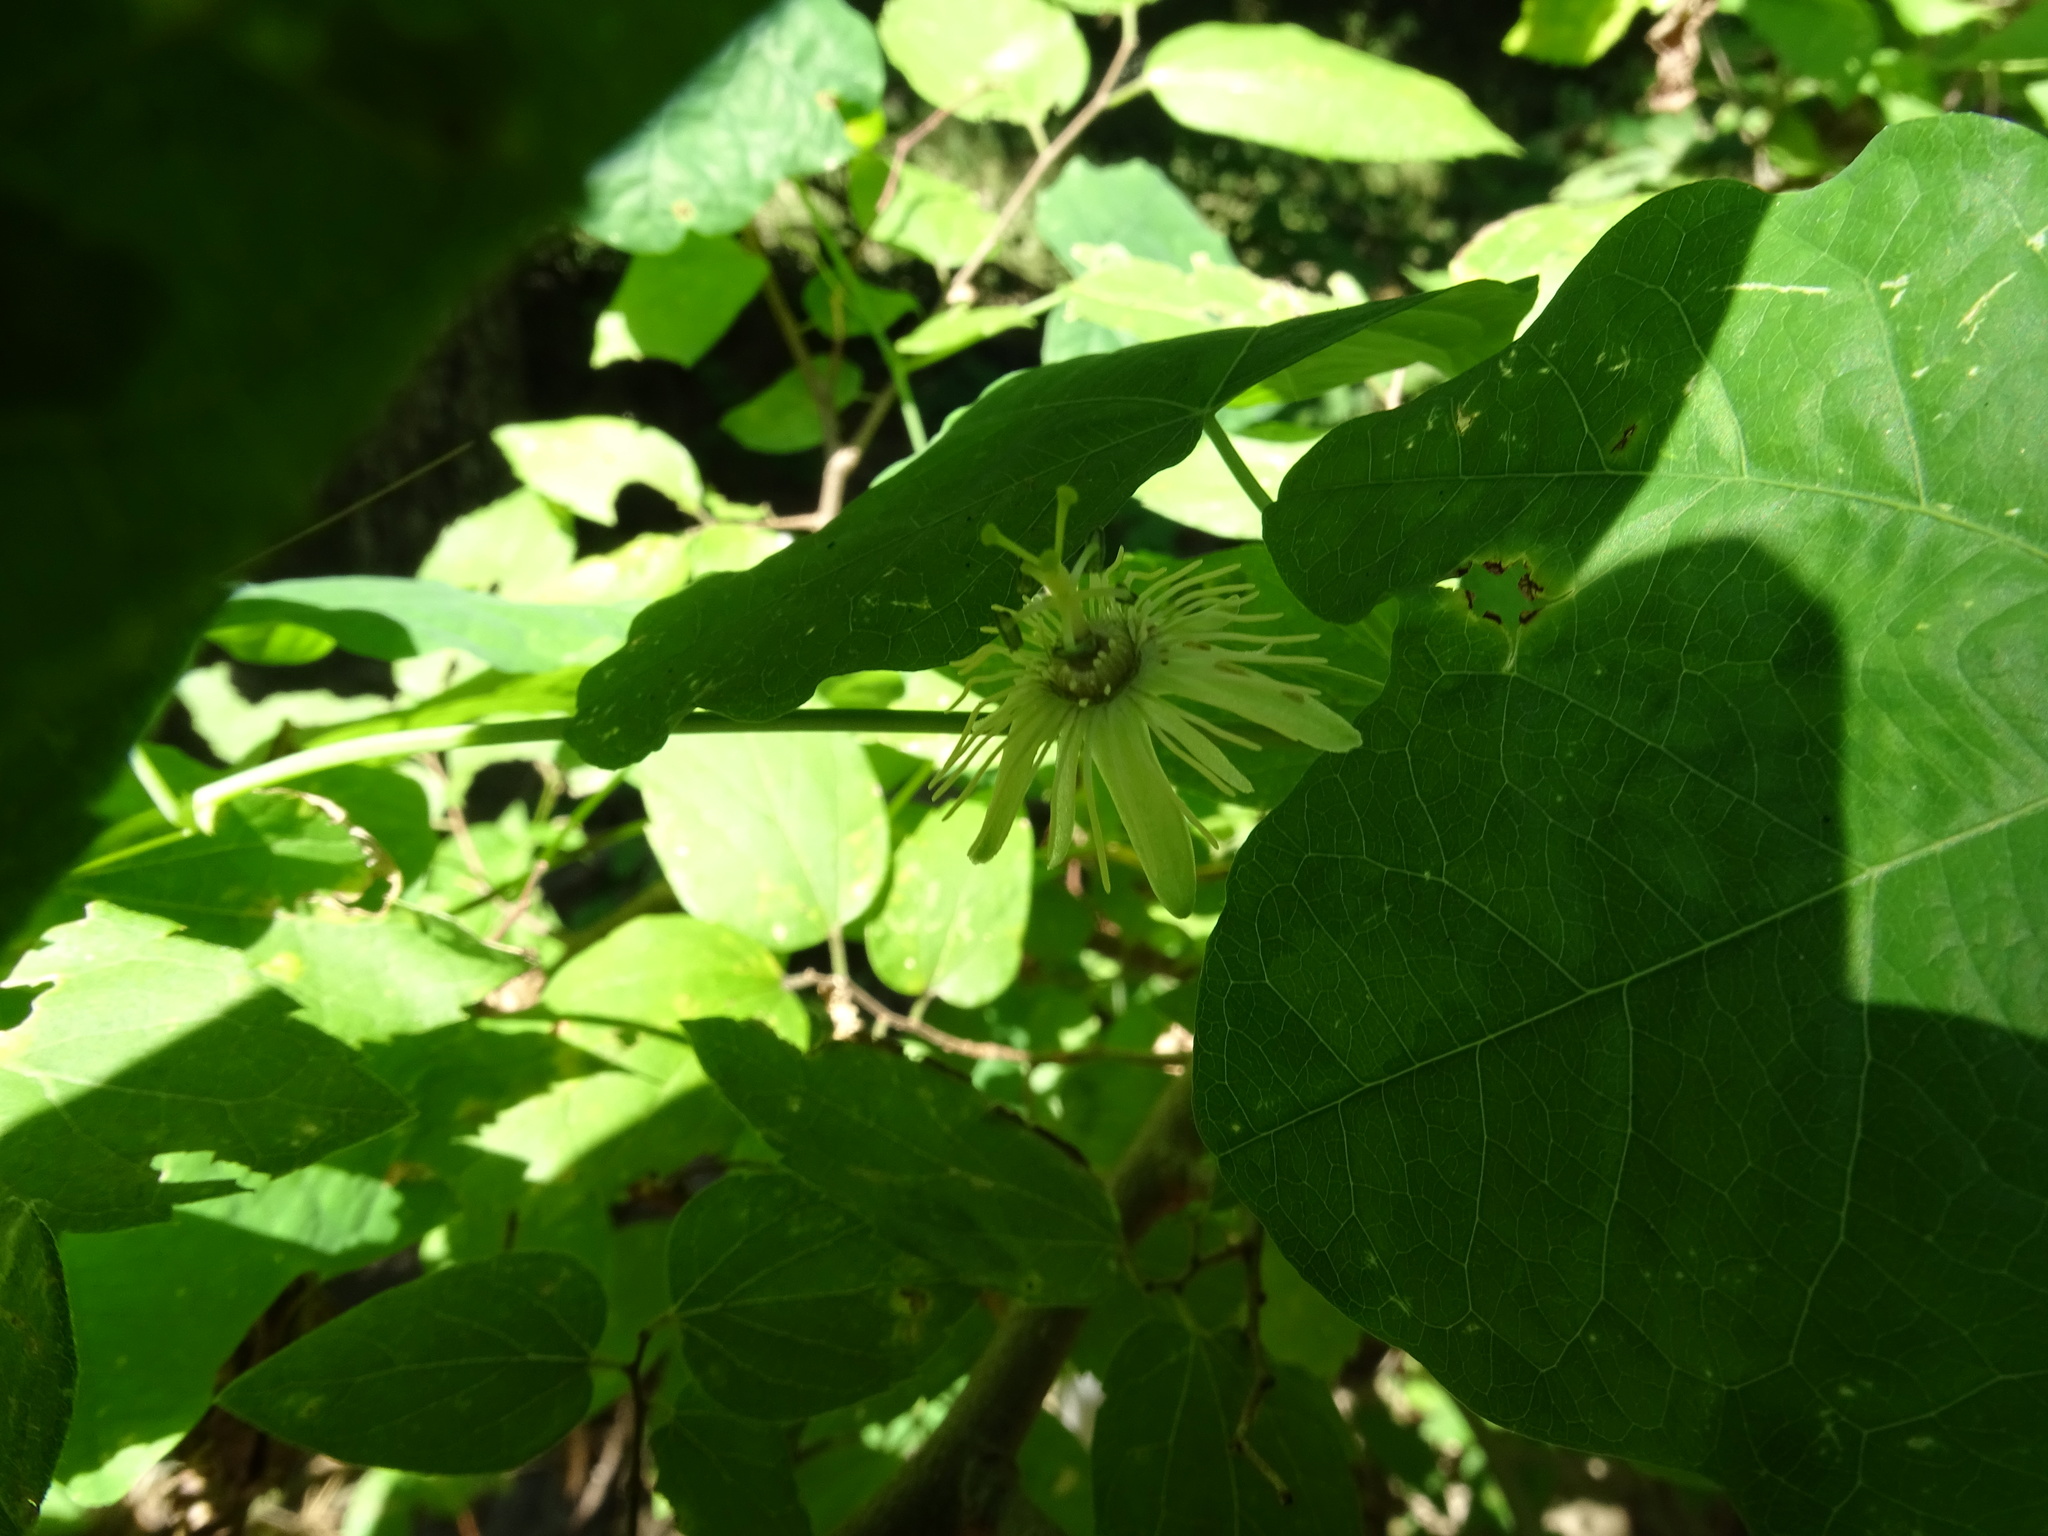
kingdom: Plantae
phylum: Tracheophyta
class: Magnoliopsida
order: Malpighiales
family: Passifloraceae
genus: Passiflora
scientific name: Passiflora lutea
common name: Yellow passionflower
